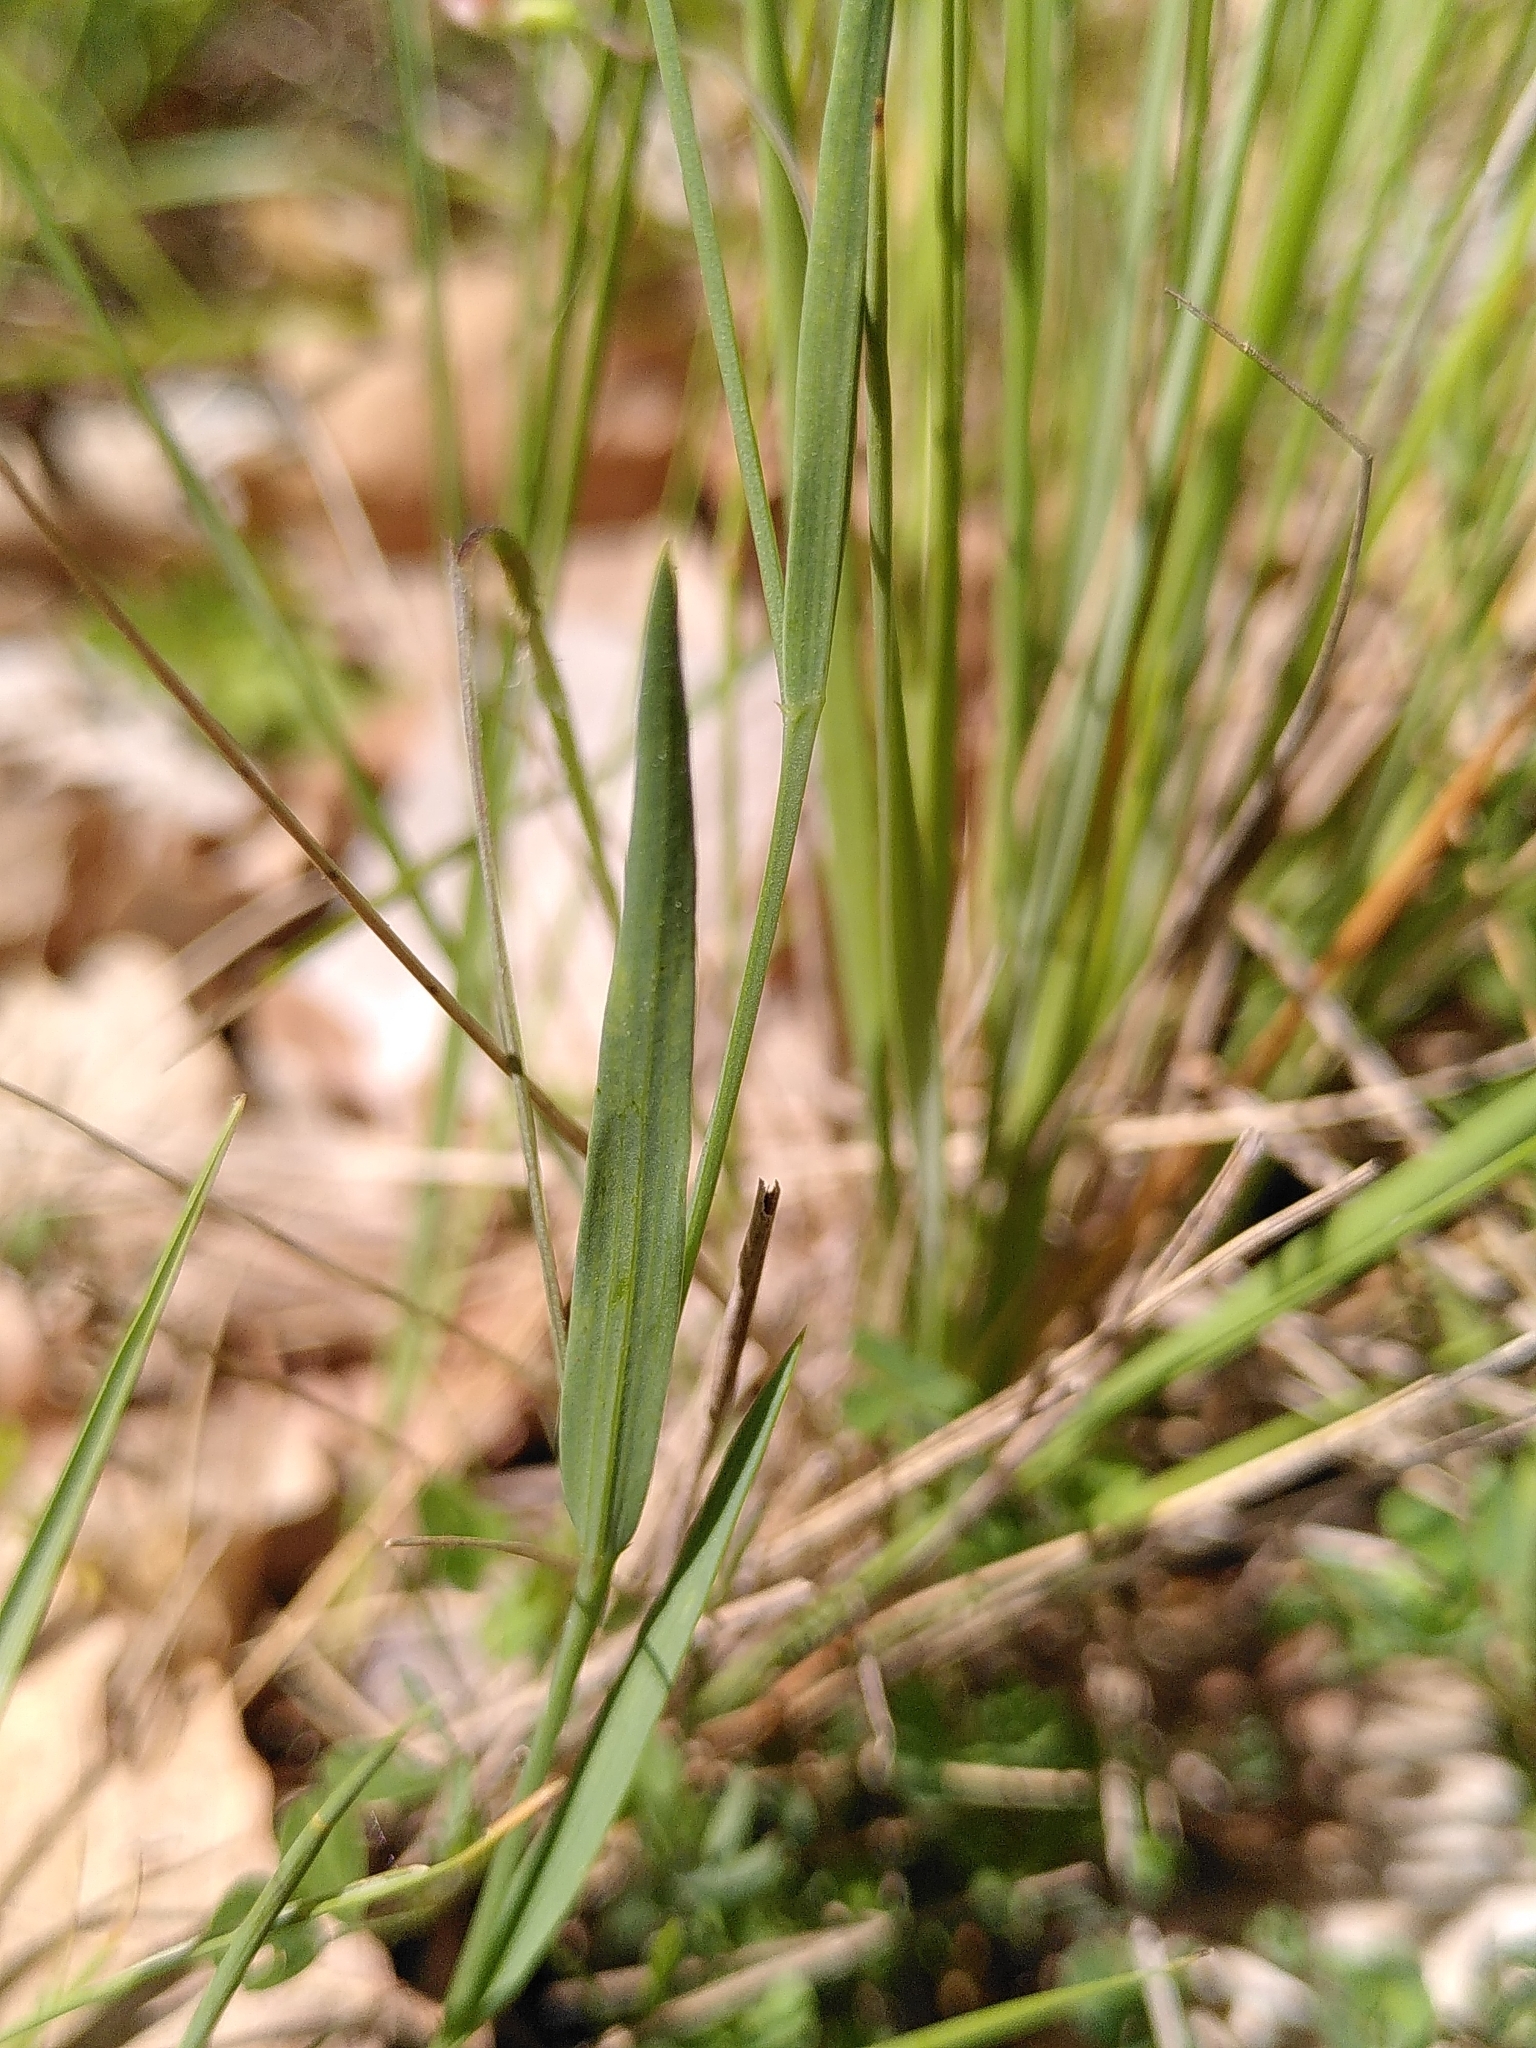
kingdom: Plantae
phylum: Tracheophyta
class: Magnoliopsida
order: Fabales
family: Fabaceae
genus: Lathyrus
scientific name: Lathyrus nissolia
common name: Grass vetchling
